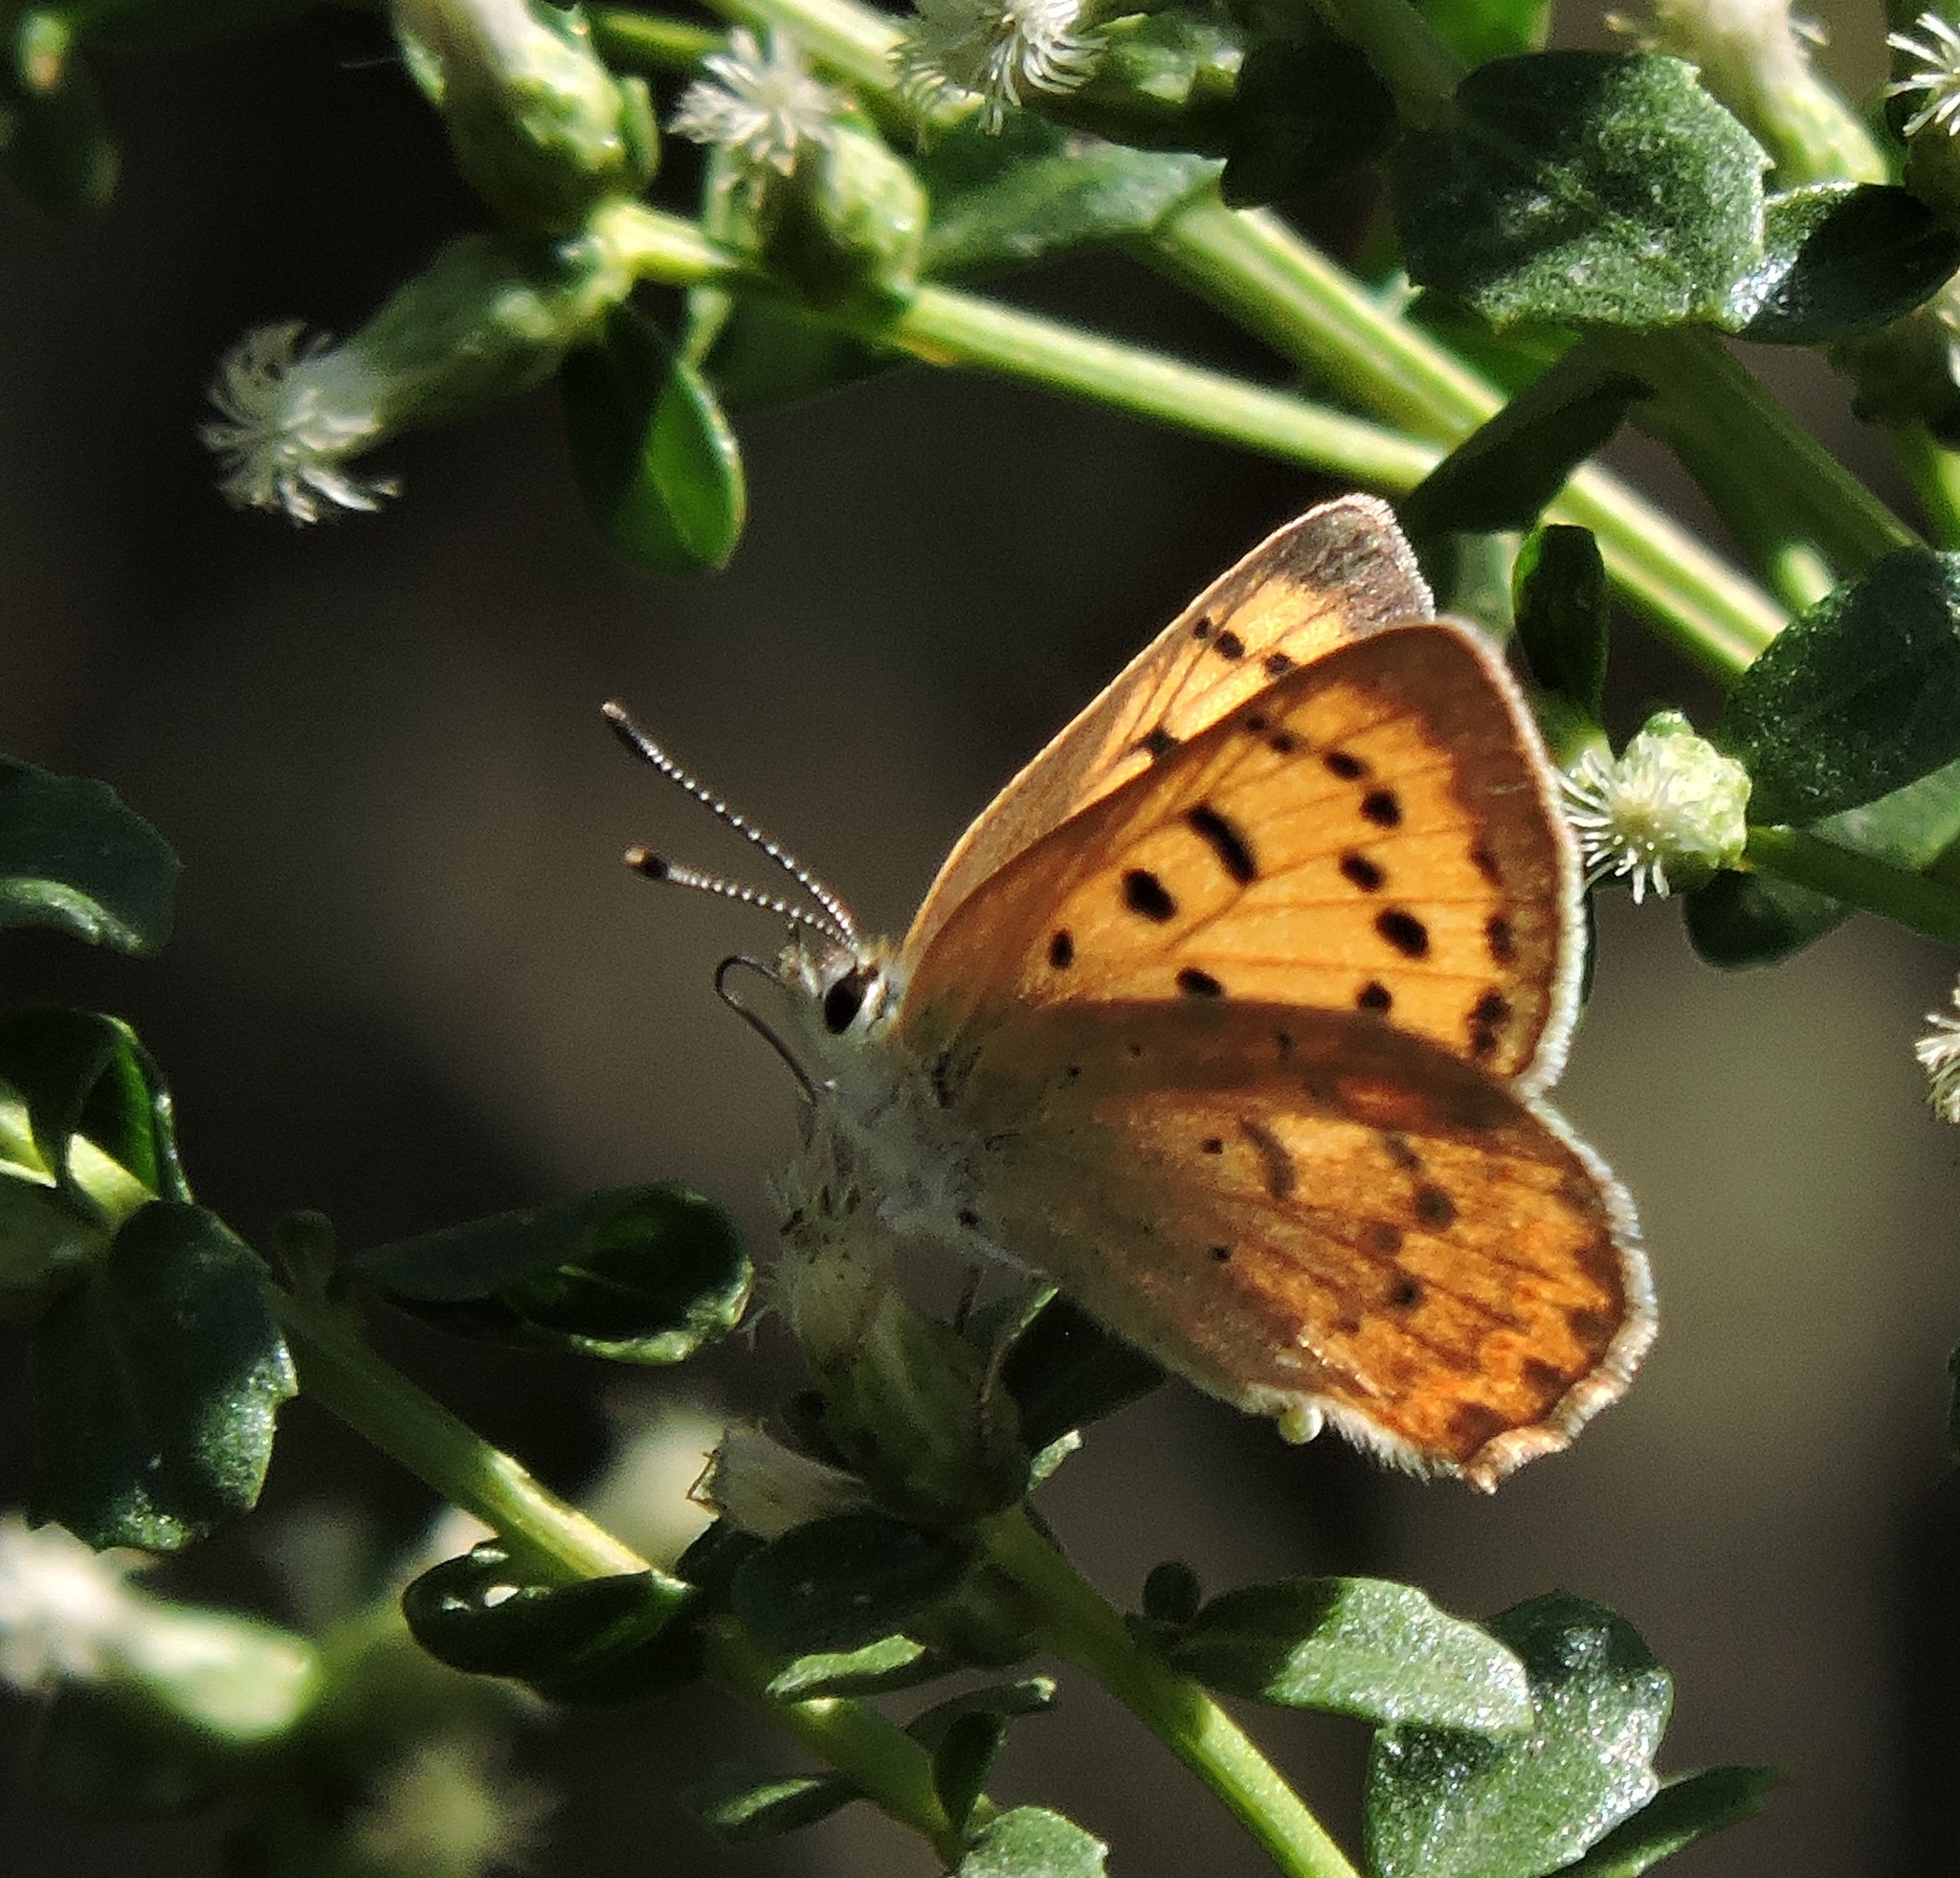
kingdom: Animalia
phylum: Arthropoda
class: Insecta
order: Lepidoptera
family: Lycaenidae
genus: Tharsalea
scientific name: Tharsalea helloides
